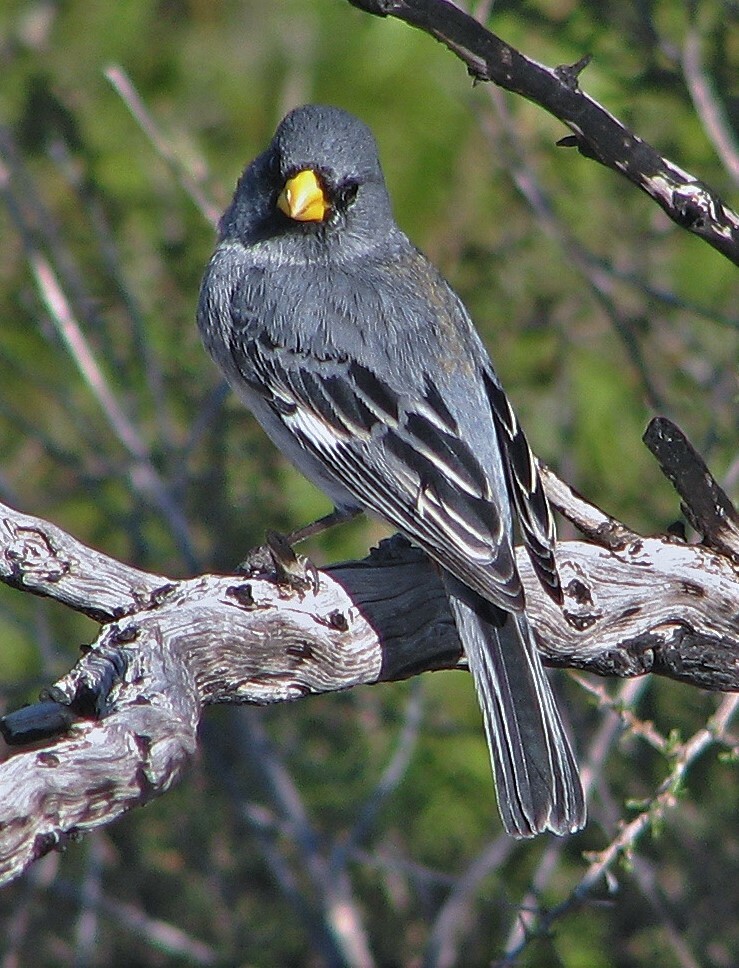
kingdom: Animalia
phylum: Chordata
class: Aves
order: Passeriformes
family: Thraupidae
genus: Catamenia
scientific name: Catamenia analis
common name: Band-tailed seedeater
